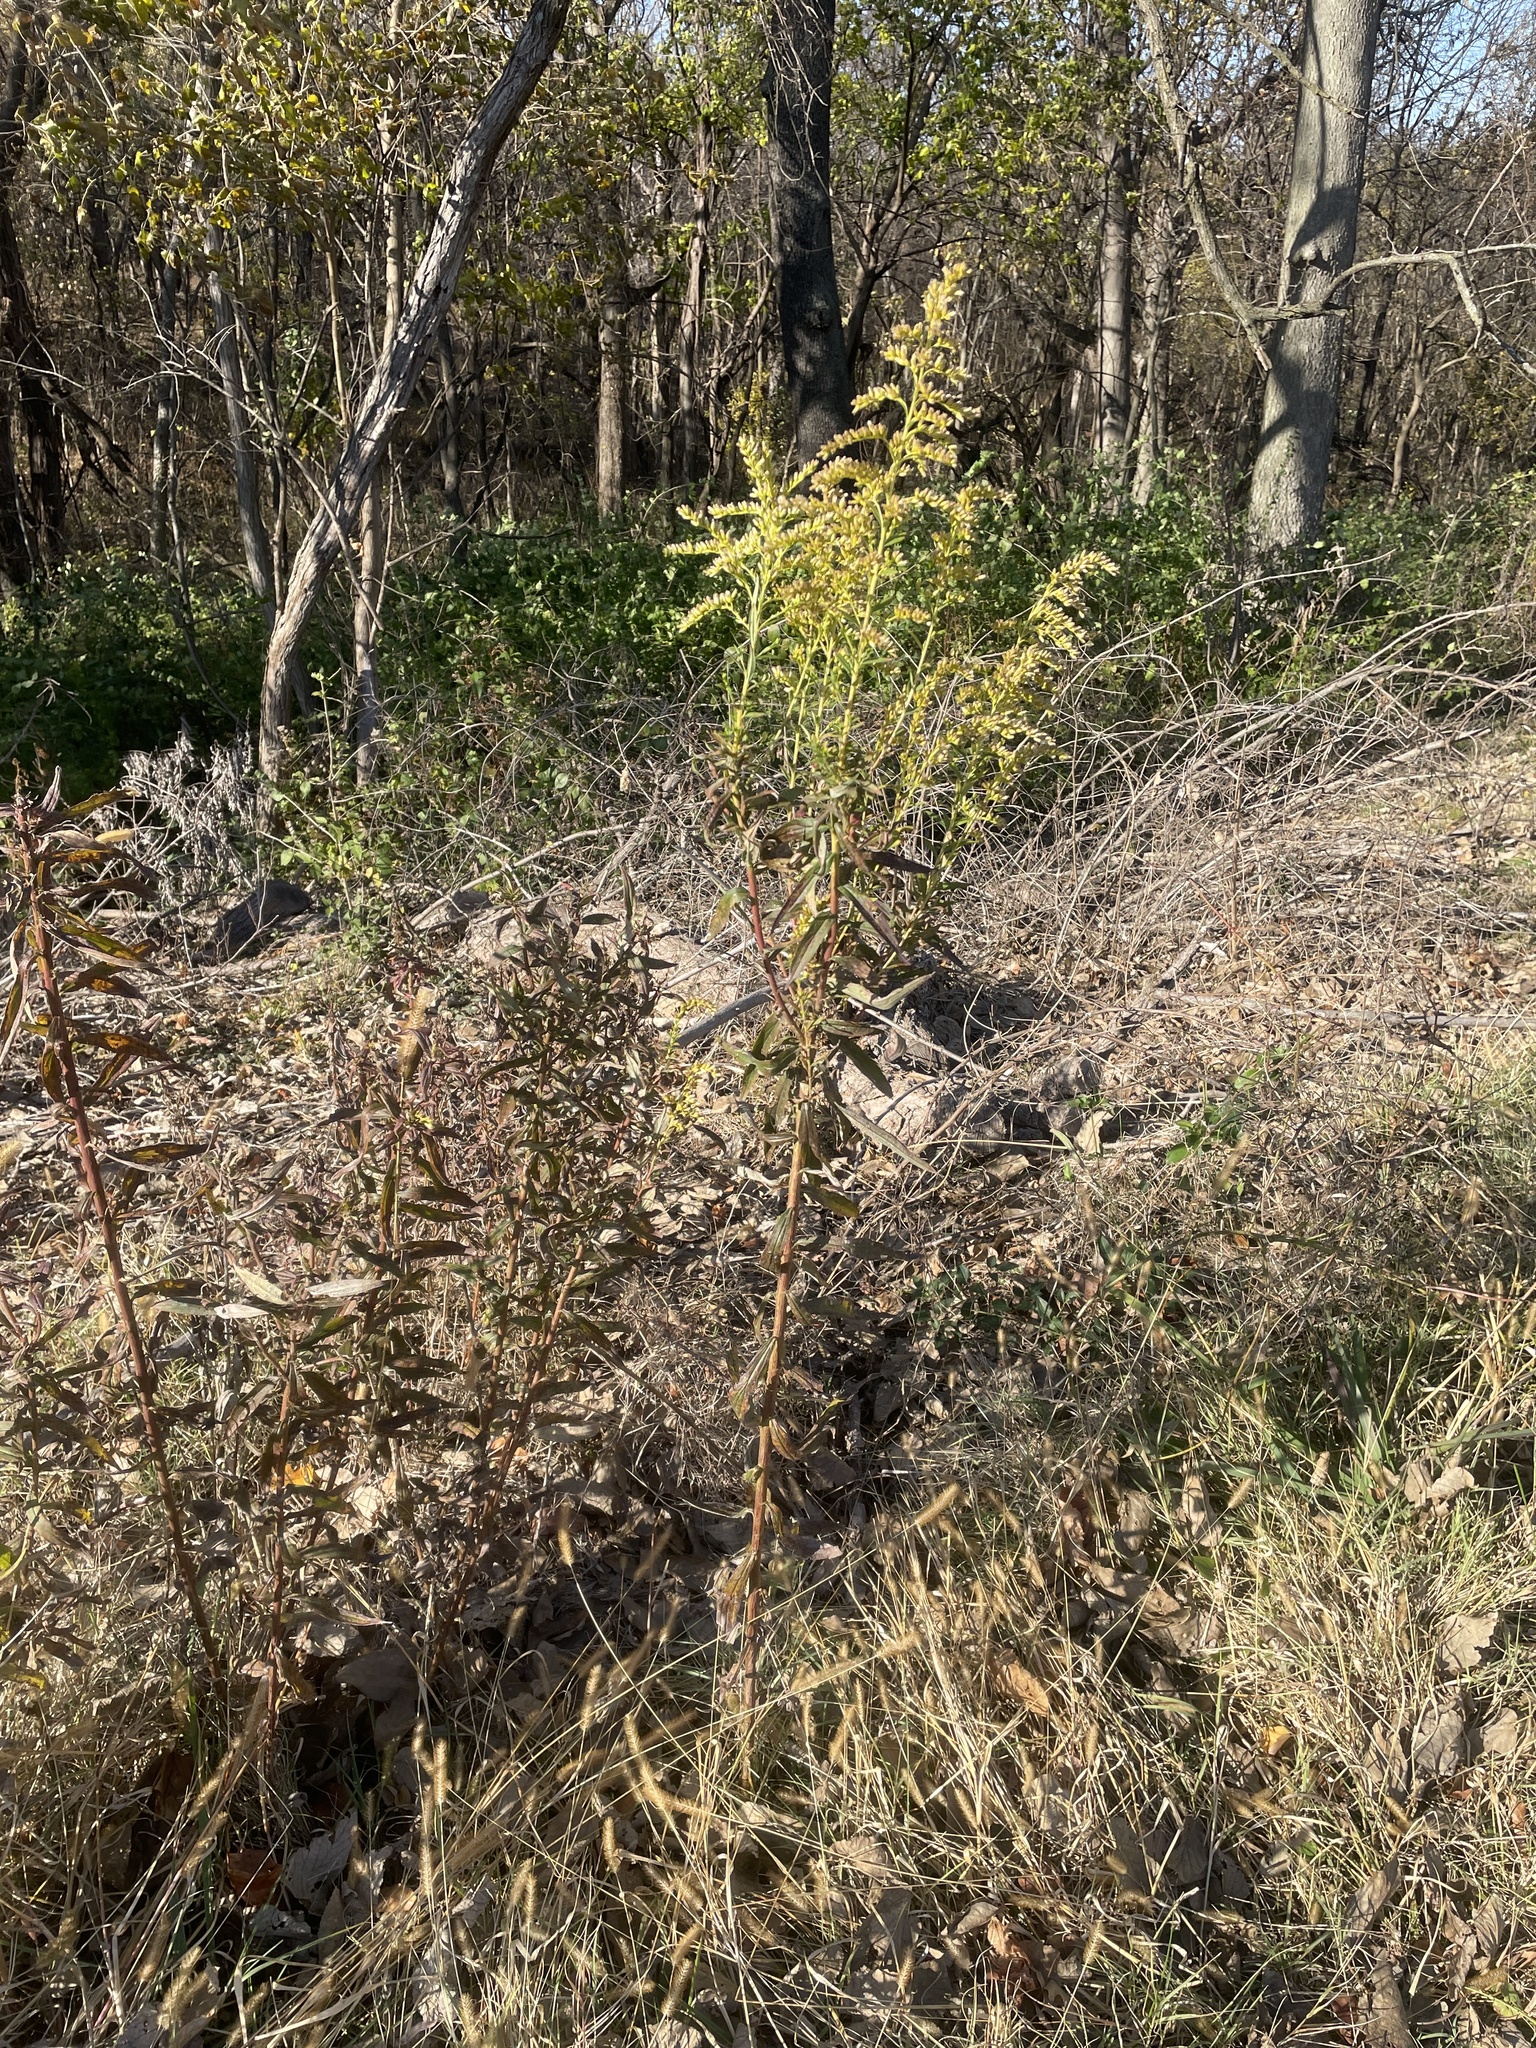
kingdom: Plantae
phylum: Tracheophyta
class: Magnoliopsida
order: Asterales
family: Asteraceae
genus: Solidago
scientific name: Solidago altissima
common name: Late goldenrod
